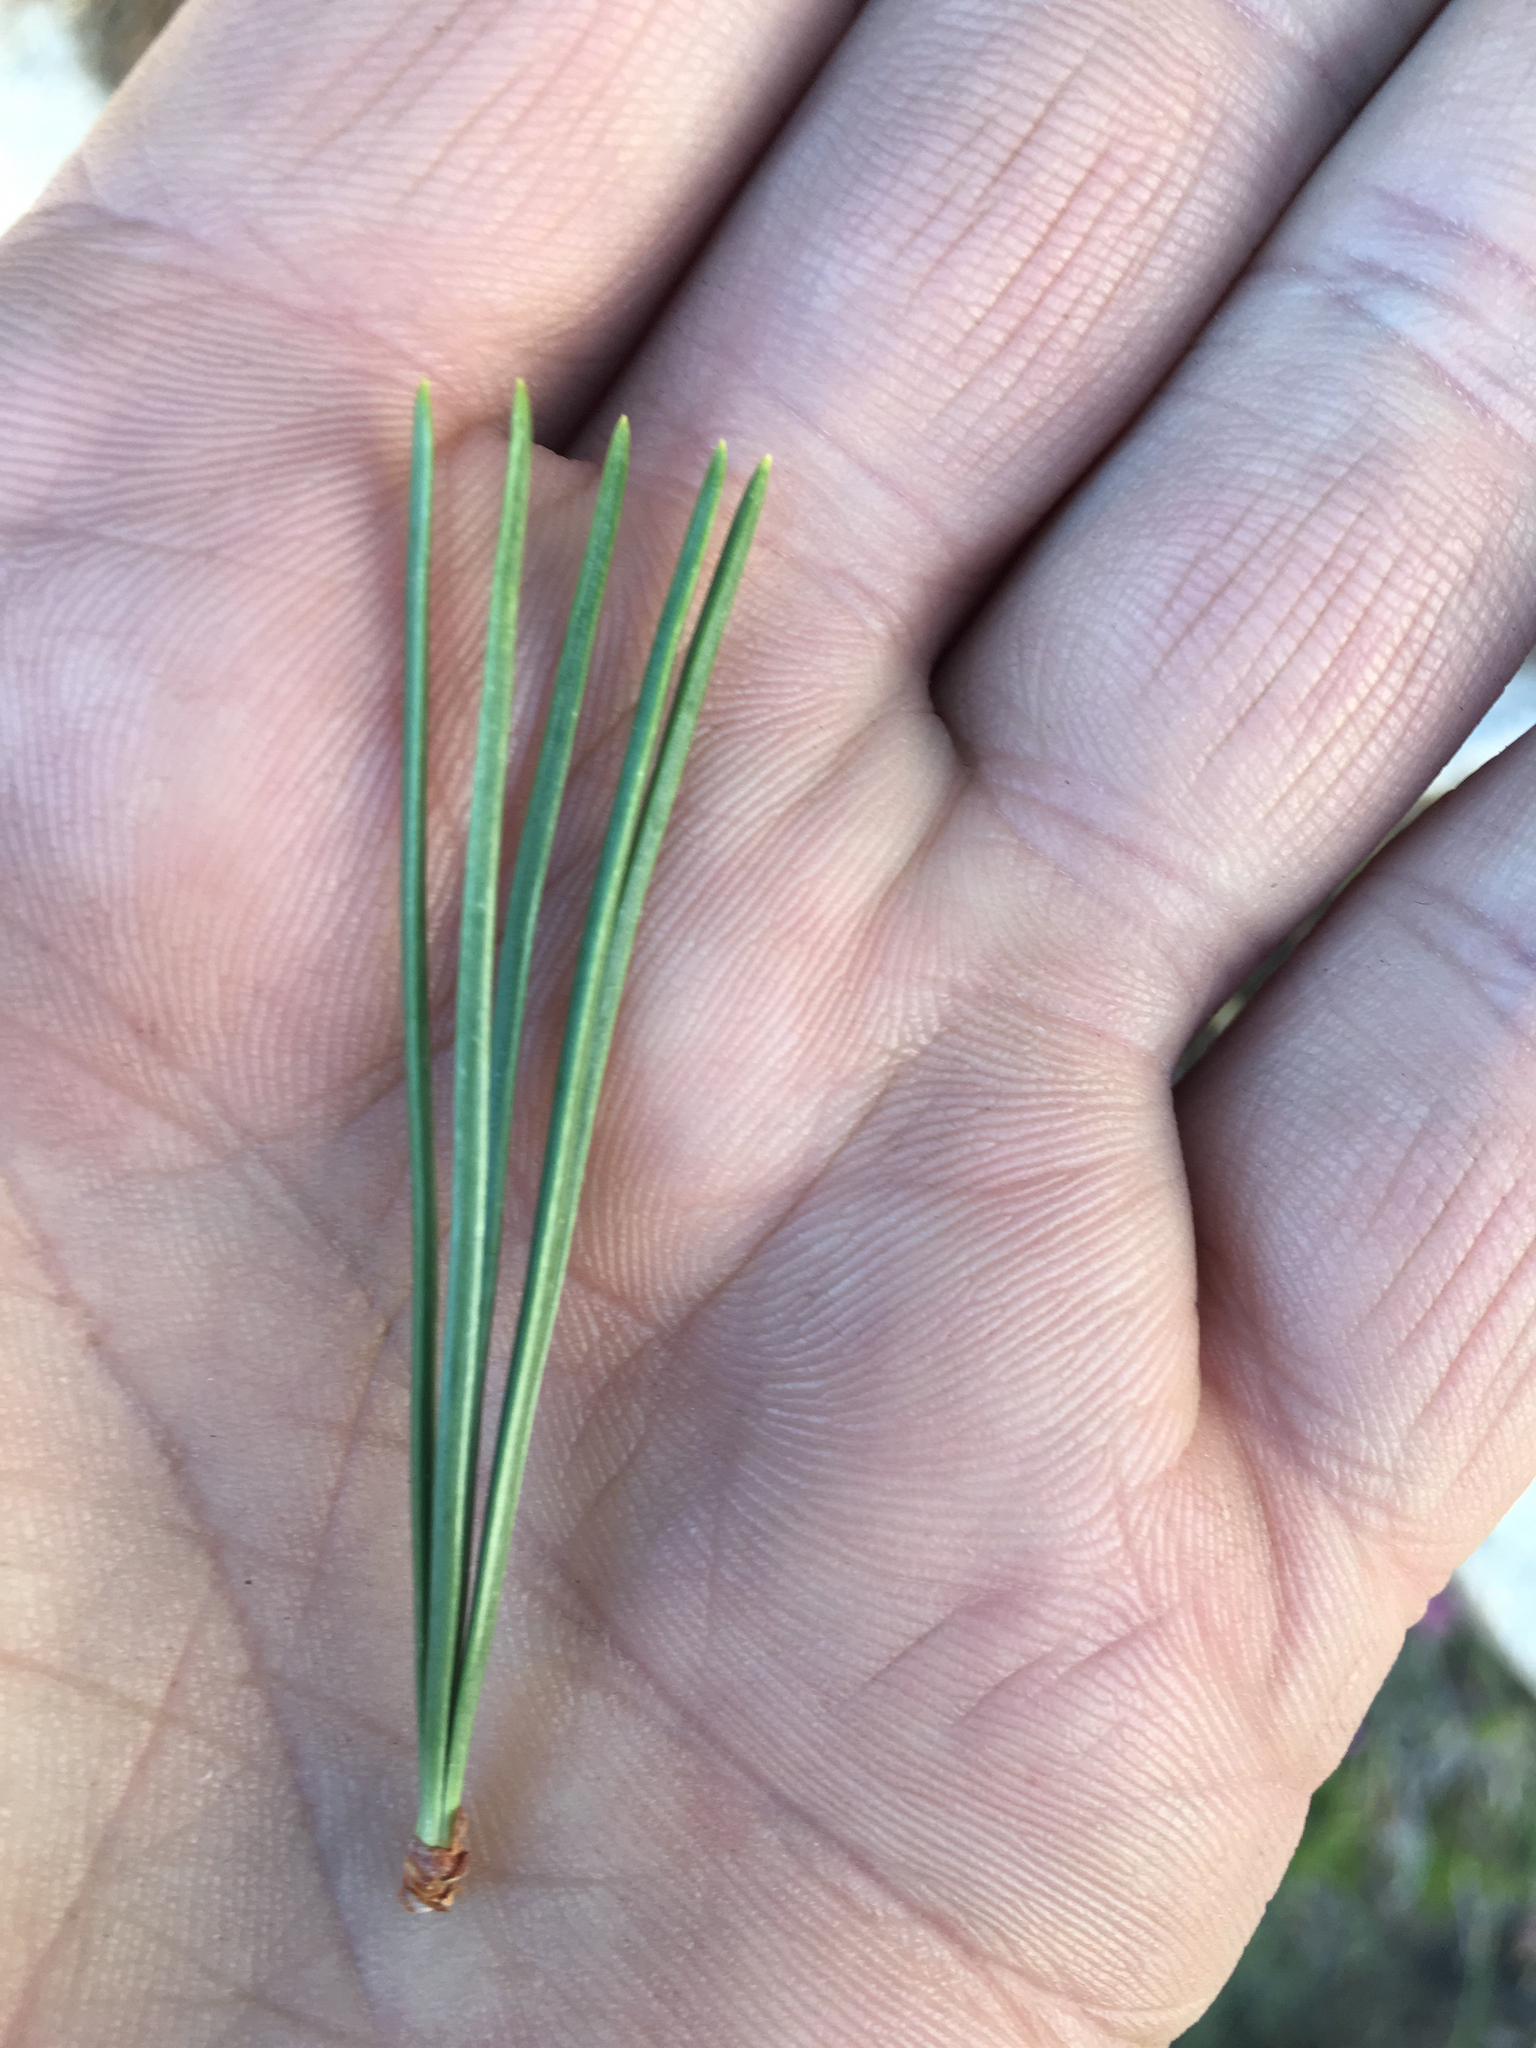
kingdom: Plantae
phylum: Tracheophyta
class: Pinopsida
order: Pinales
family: Pinaceae
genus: Pinus
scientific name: Pinus albicaulis
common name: Whitebark pine
